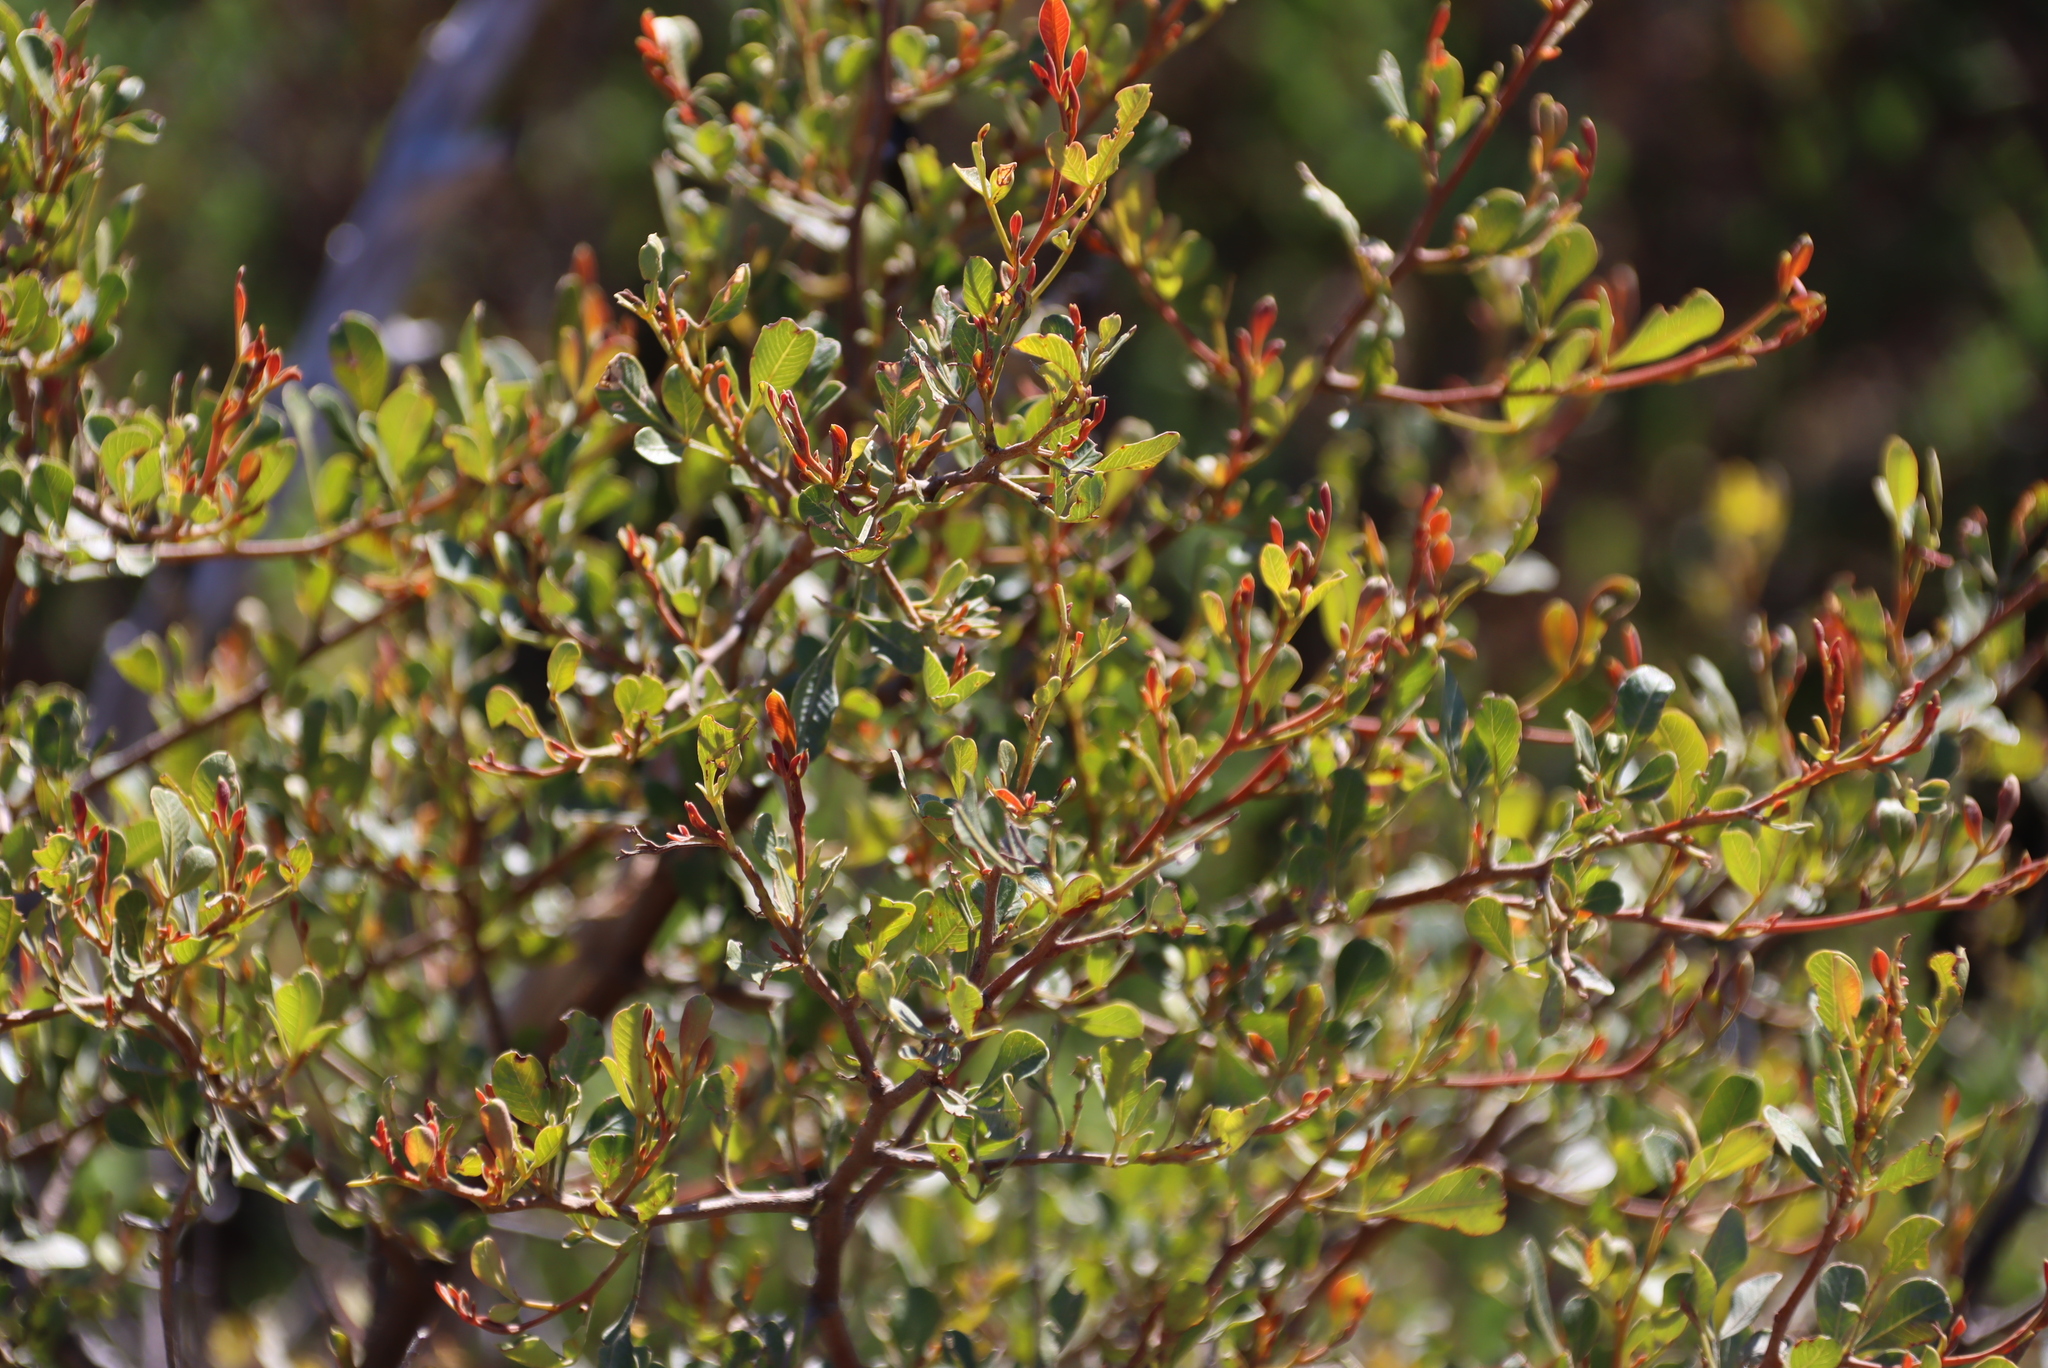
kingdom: Plantae
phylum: Tracheophyta
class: Magnoliopsida
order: Sapindales
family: Anacardiaceae
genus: Searsia
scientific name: Searsia pallens
